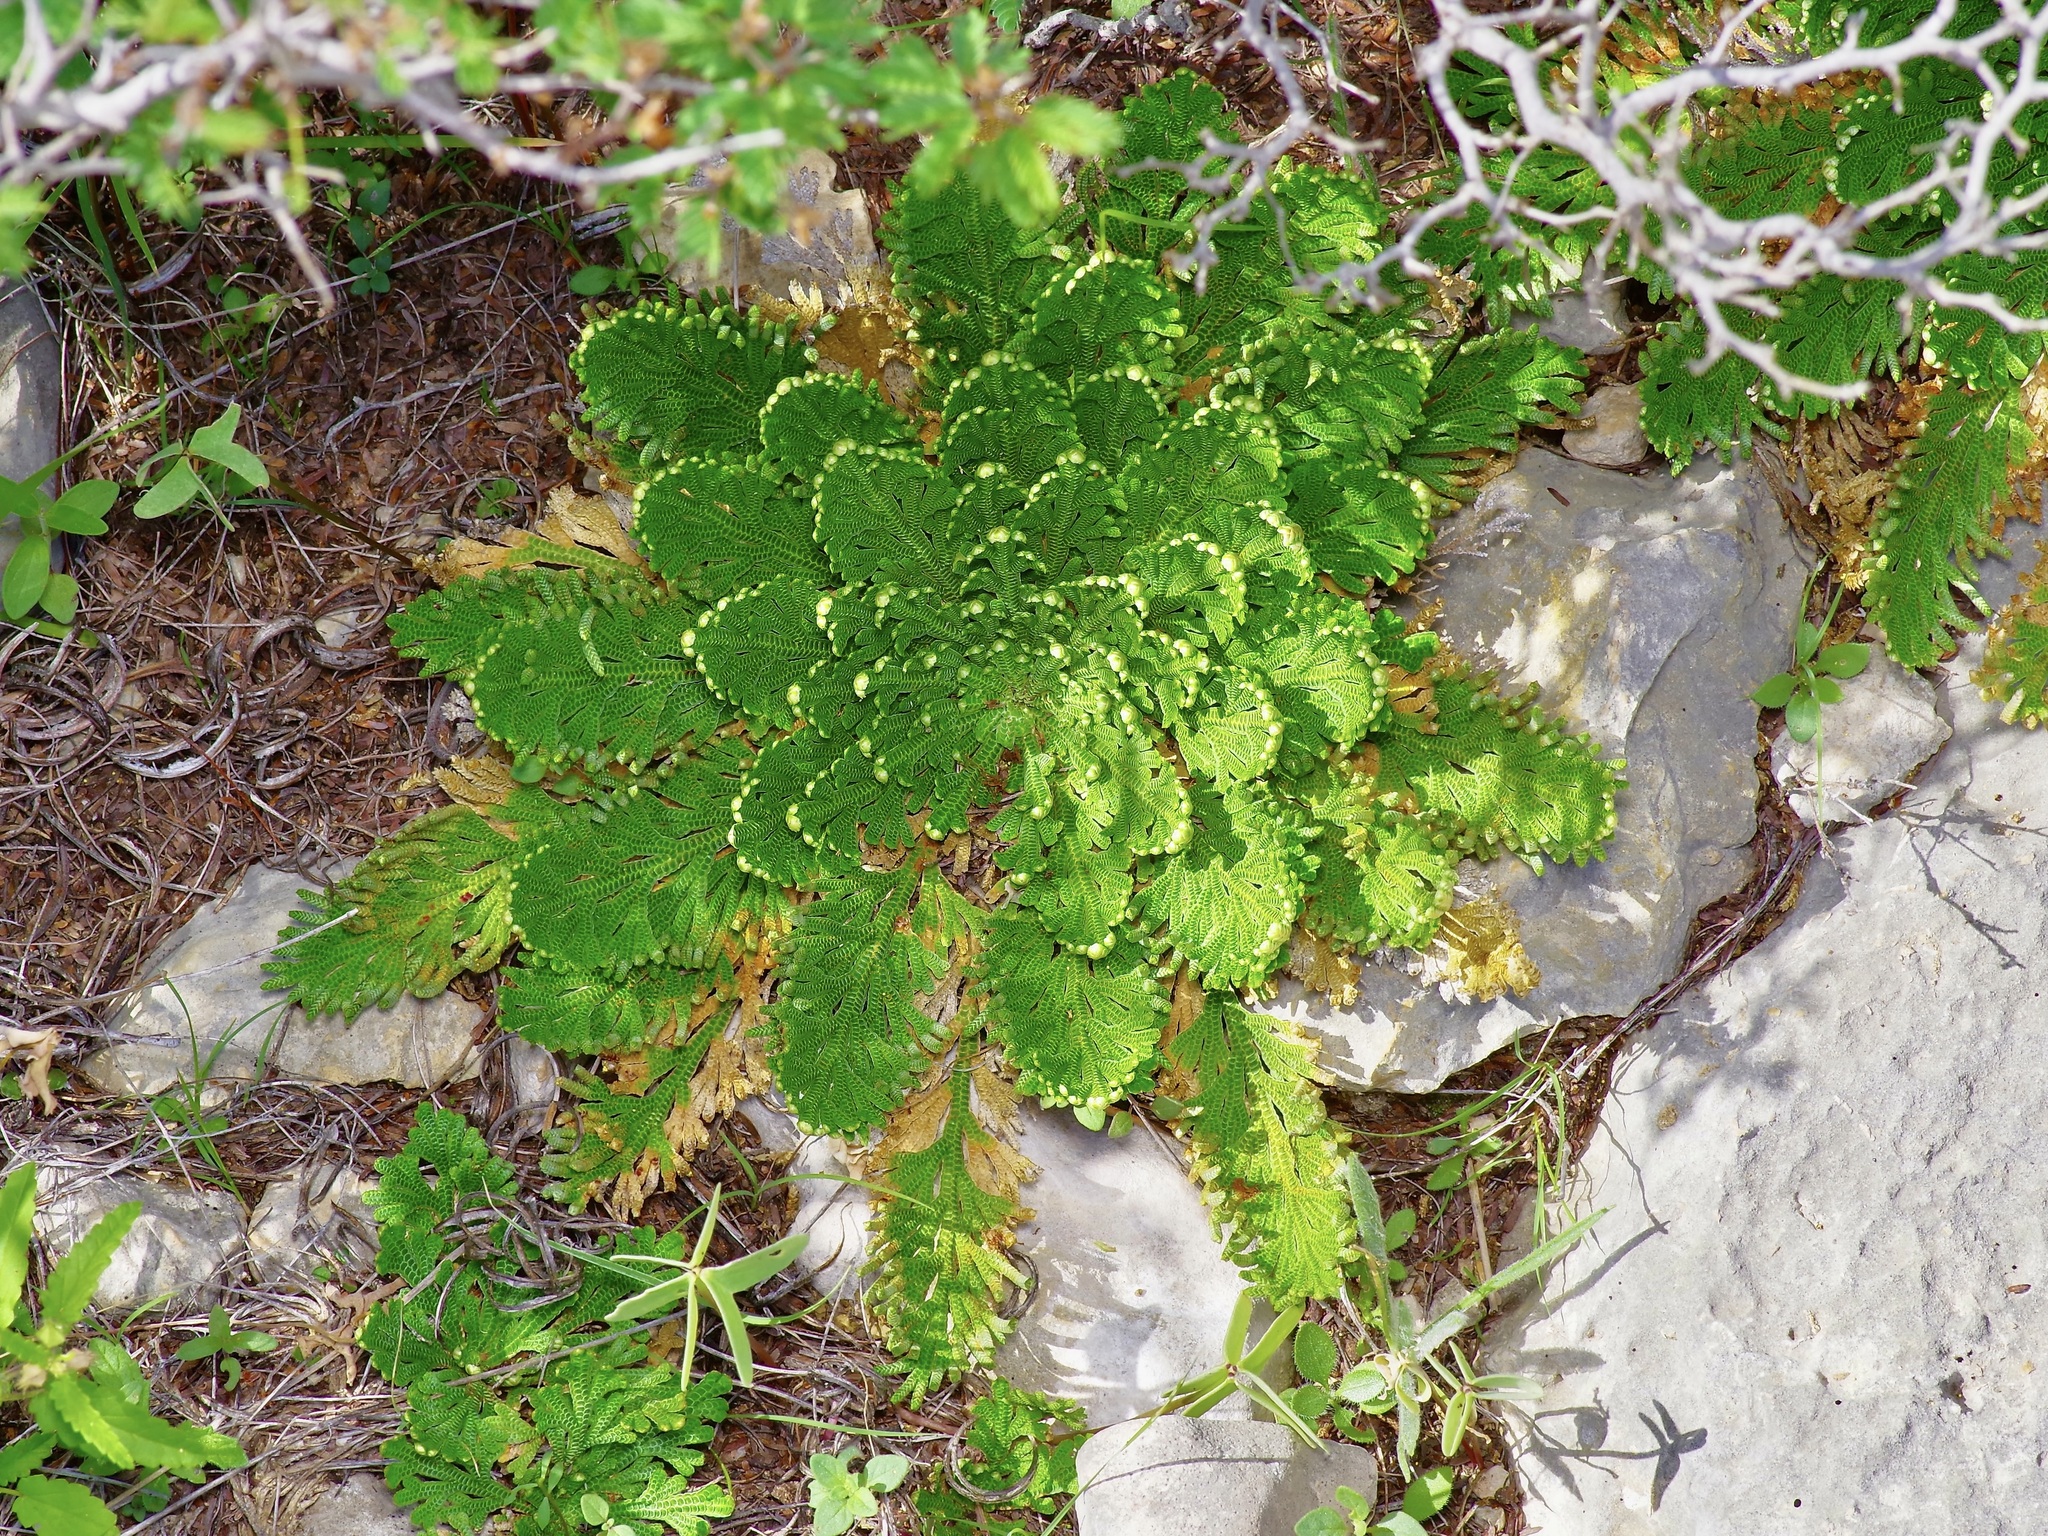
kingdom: Plantae
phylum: Tracheophyta
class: Lycopodiopsida
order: Selaginellales
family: Selaginellaceae
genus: Selaginella
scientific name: Selaginella lepidophylla
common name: Rose-of-jericho
